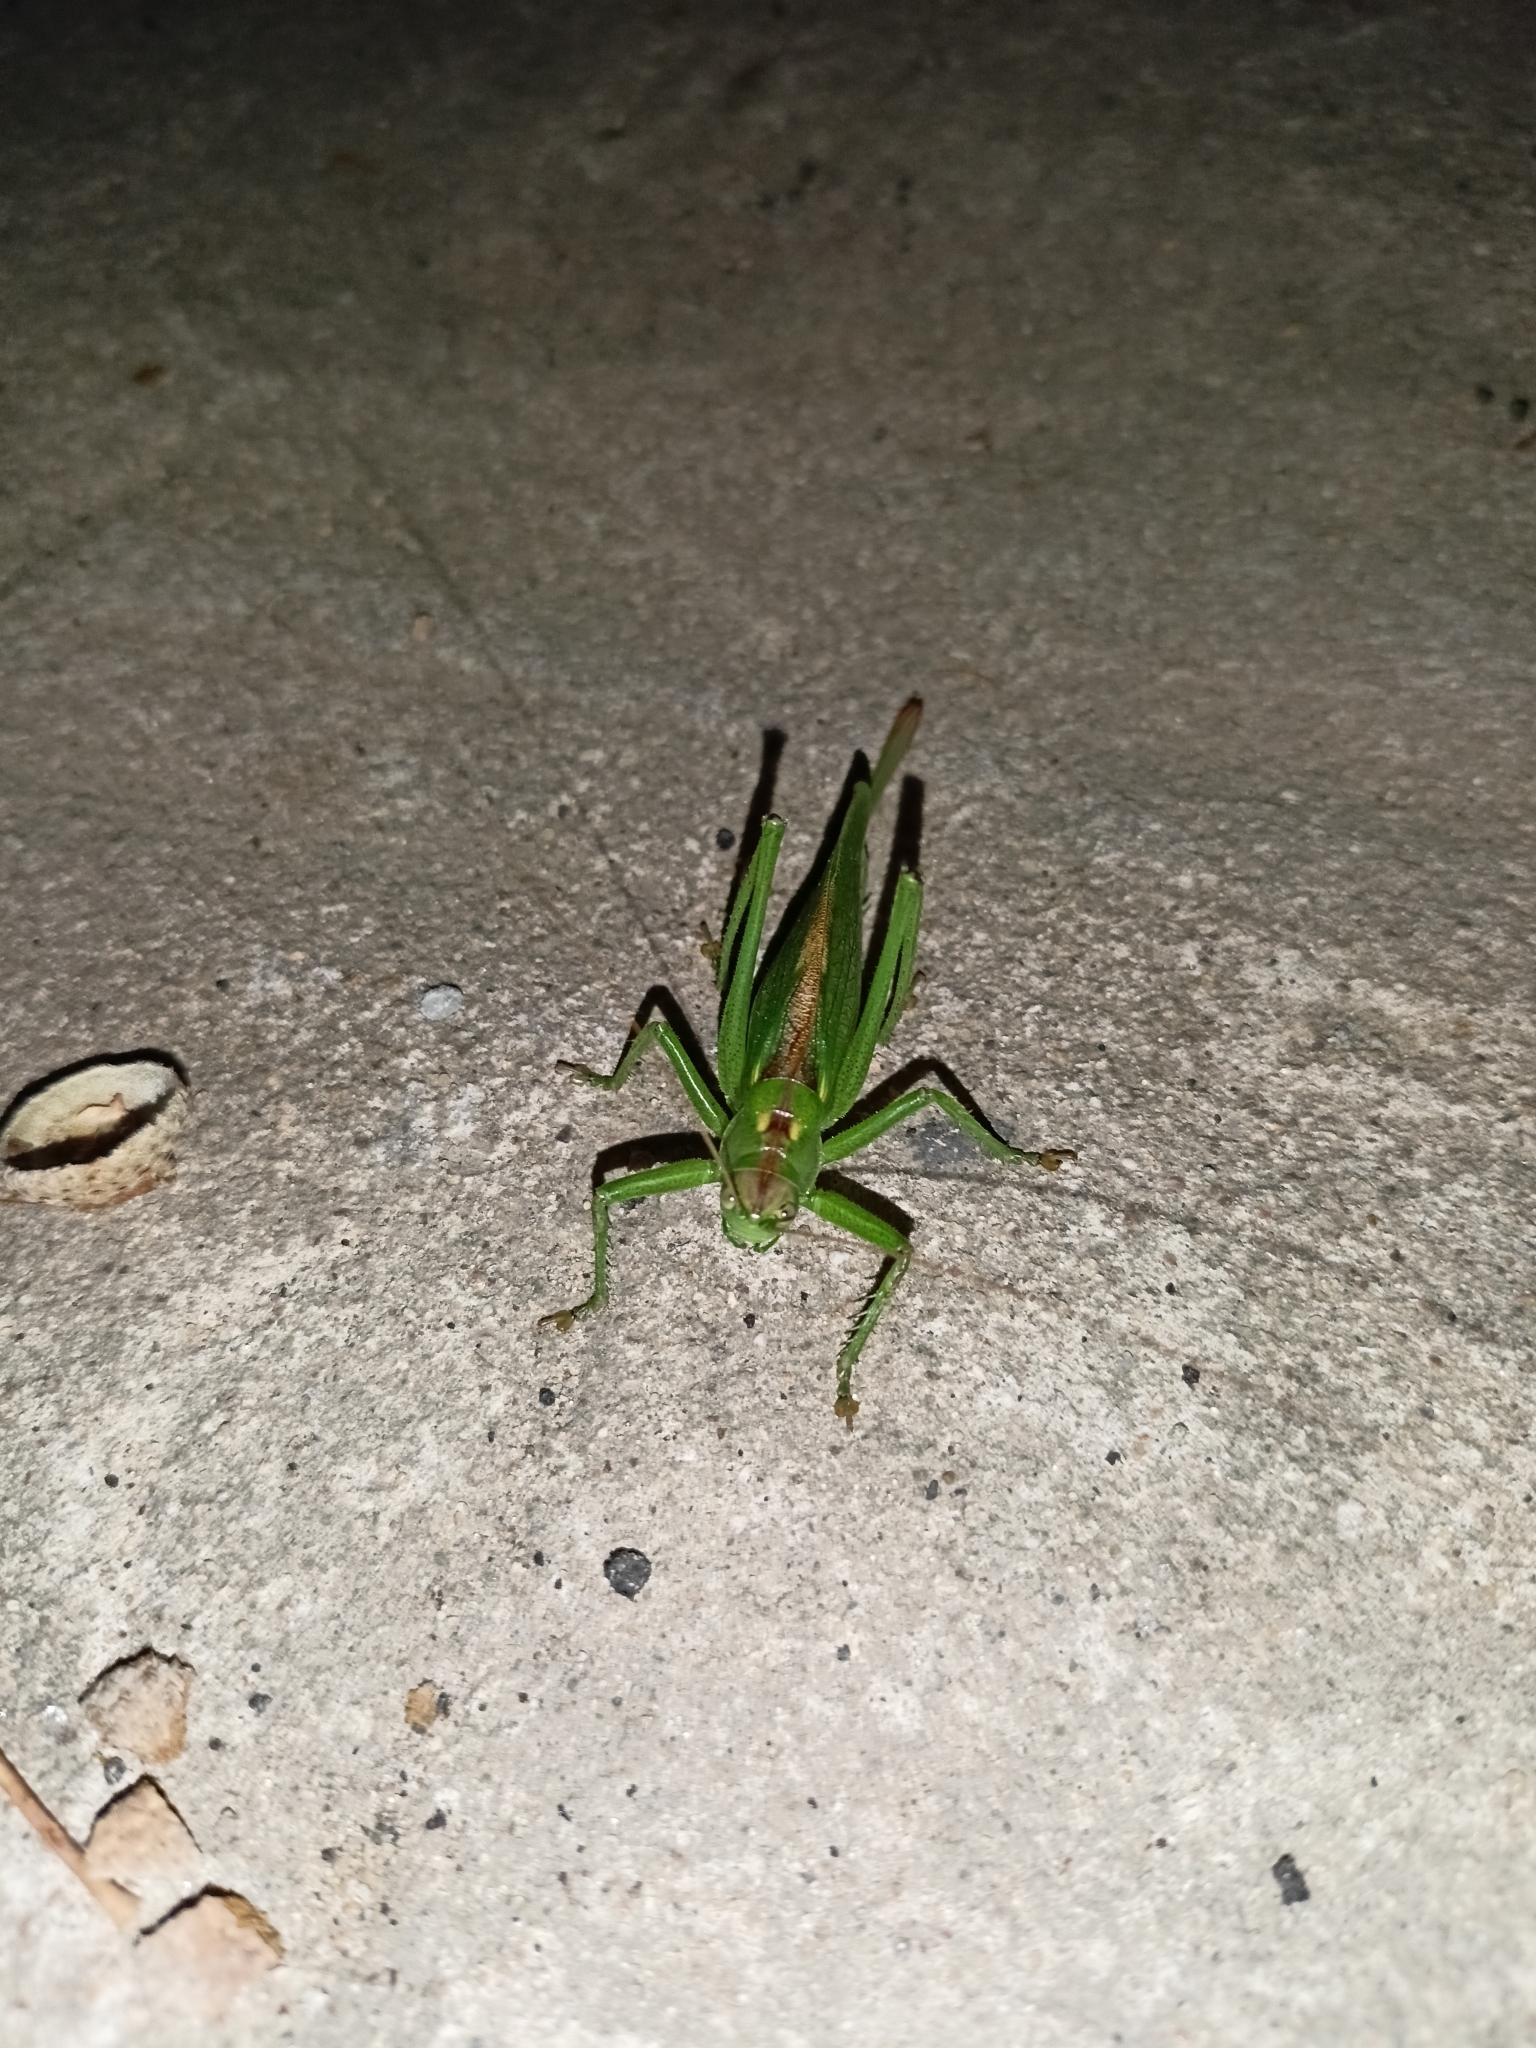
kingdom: Animalia
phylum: Arthropoda
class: Insecta
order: Orthoptera
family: Tettigoniidae
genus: Tettigonia
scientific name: Tettigonia cantans
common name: Upland green bush-cricket
